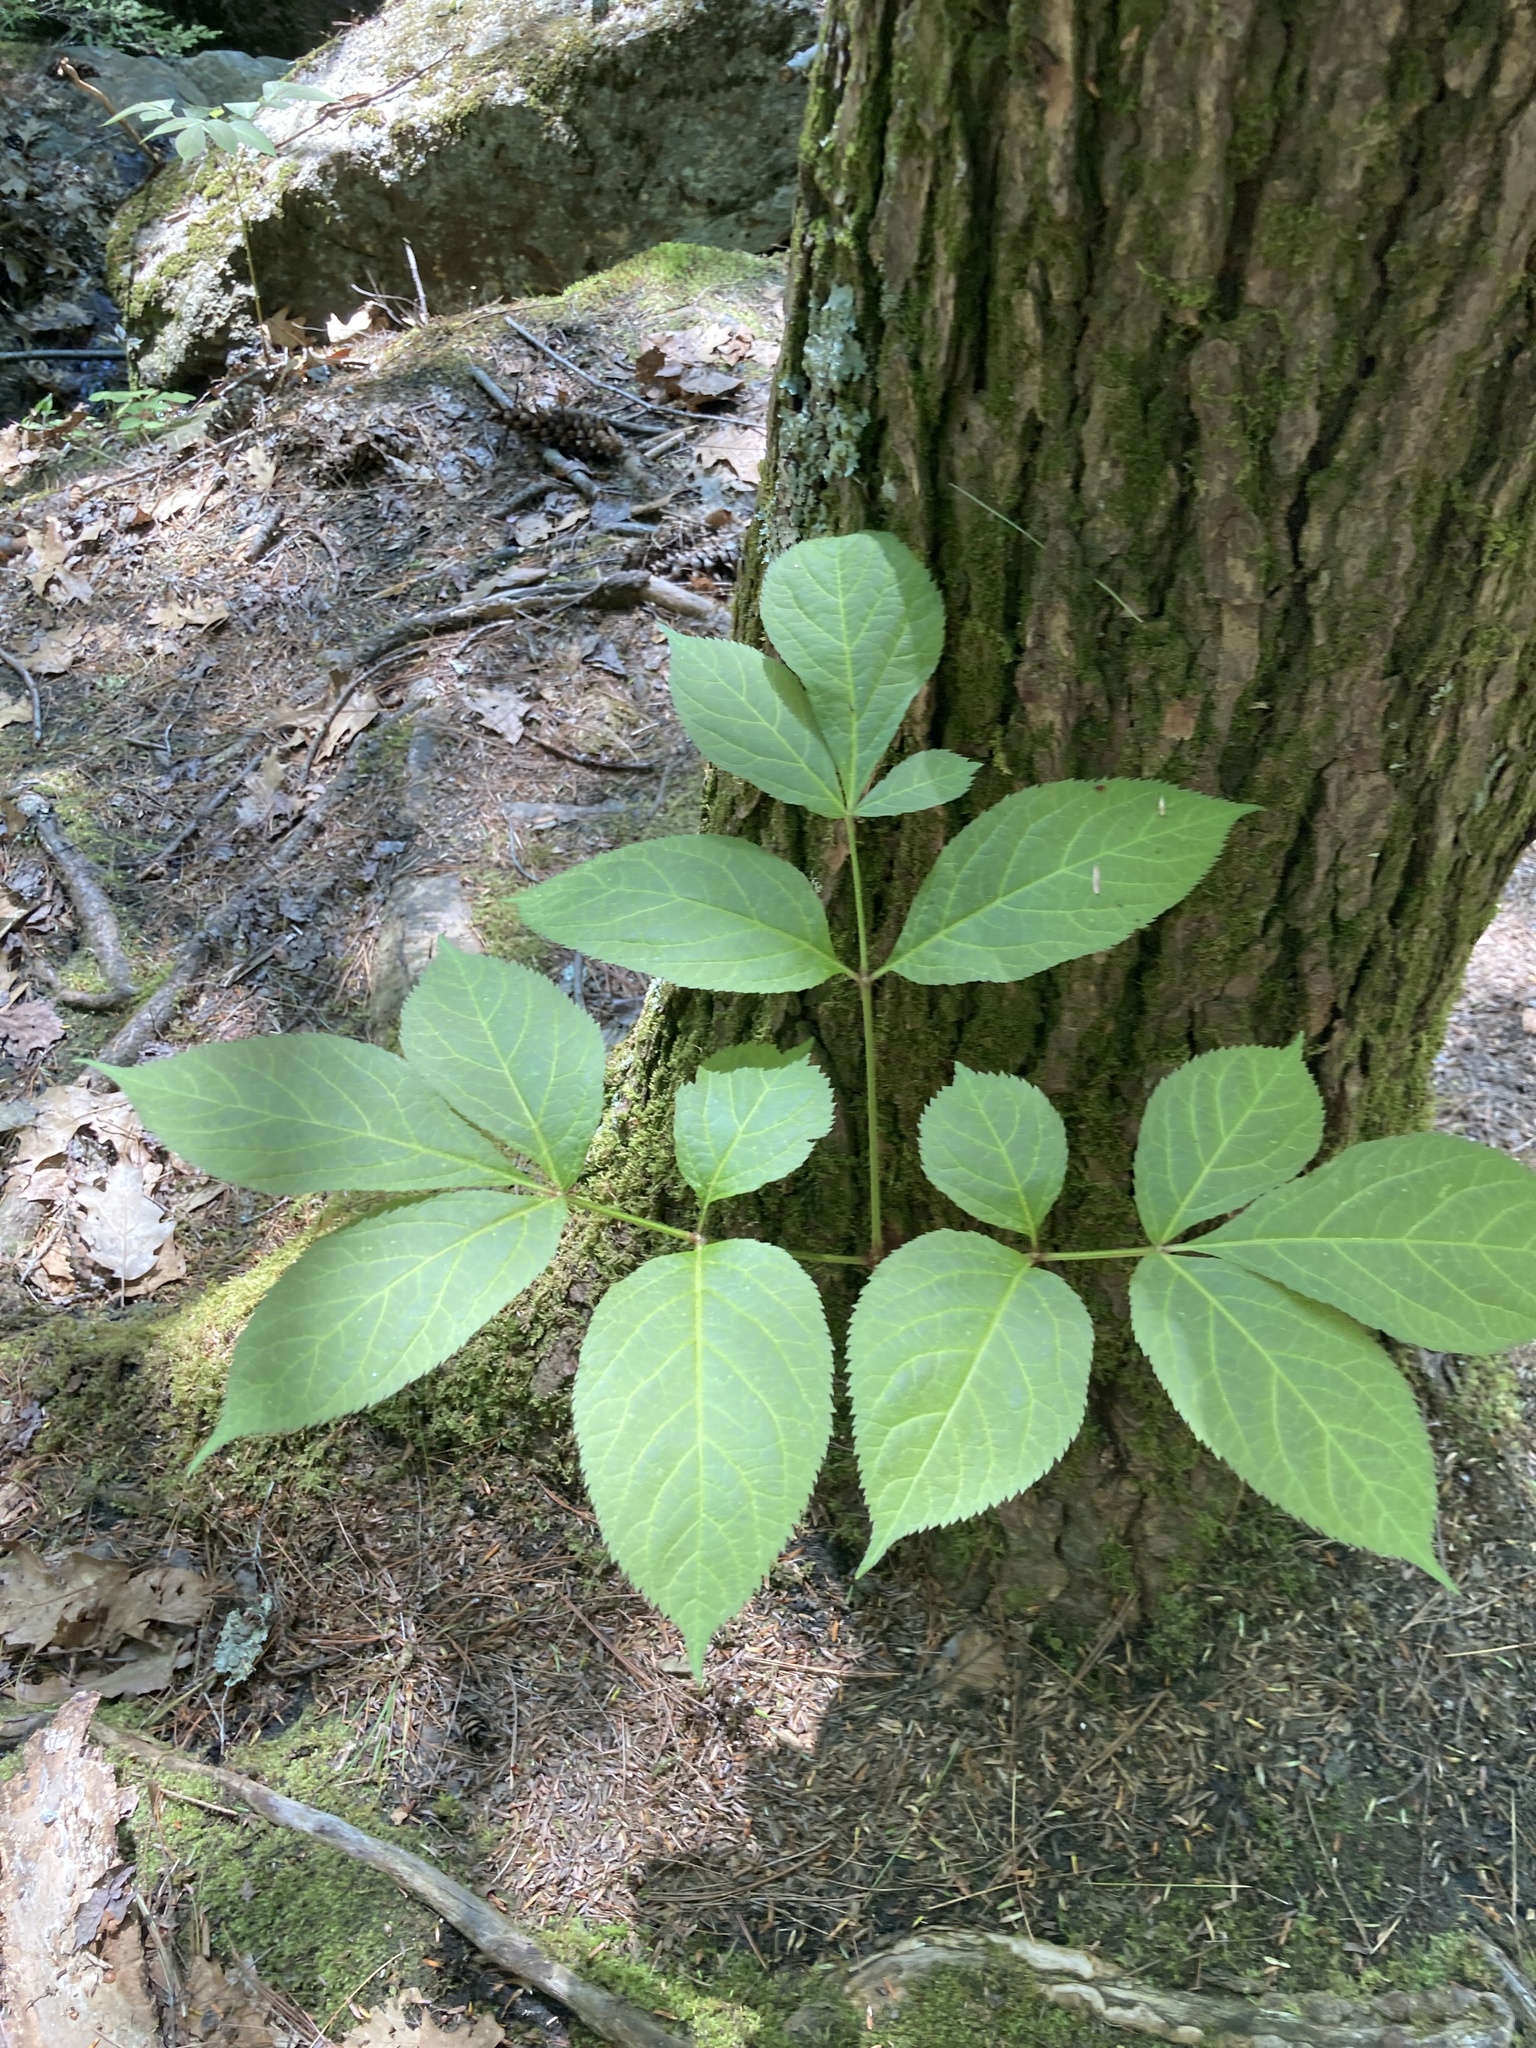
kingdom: Plantae
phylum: Tracheophyta
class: Magnoliopsida
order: Apiales
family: Araliaceae
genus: Aralia
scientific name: Aralia nudicaulis
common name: Wild sarsaparilla
